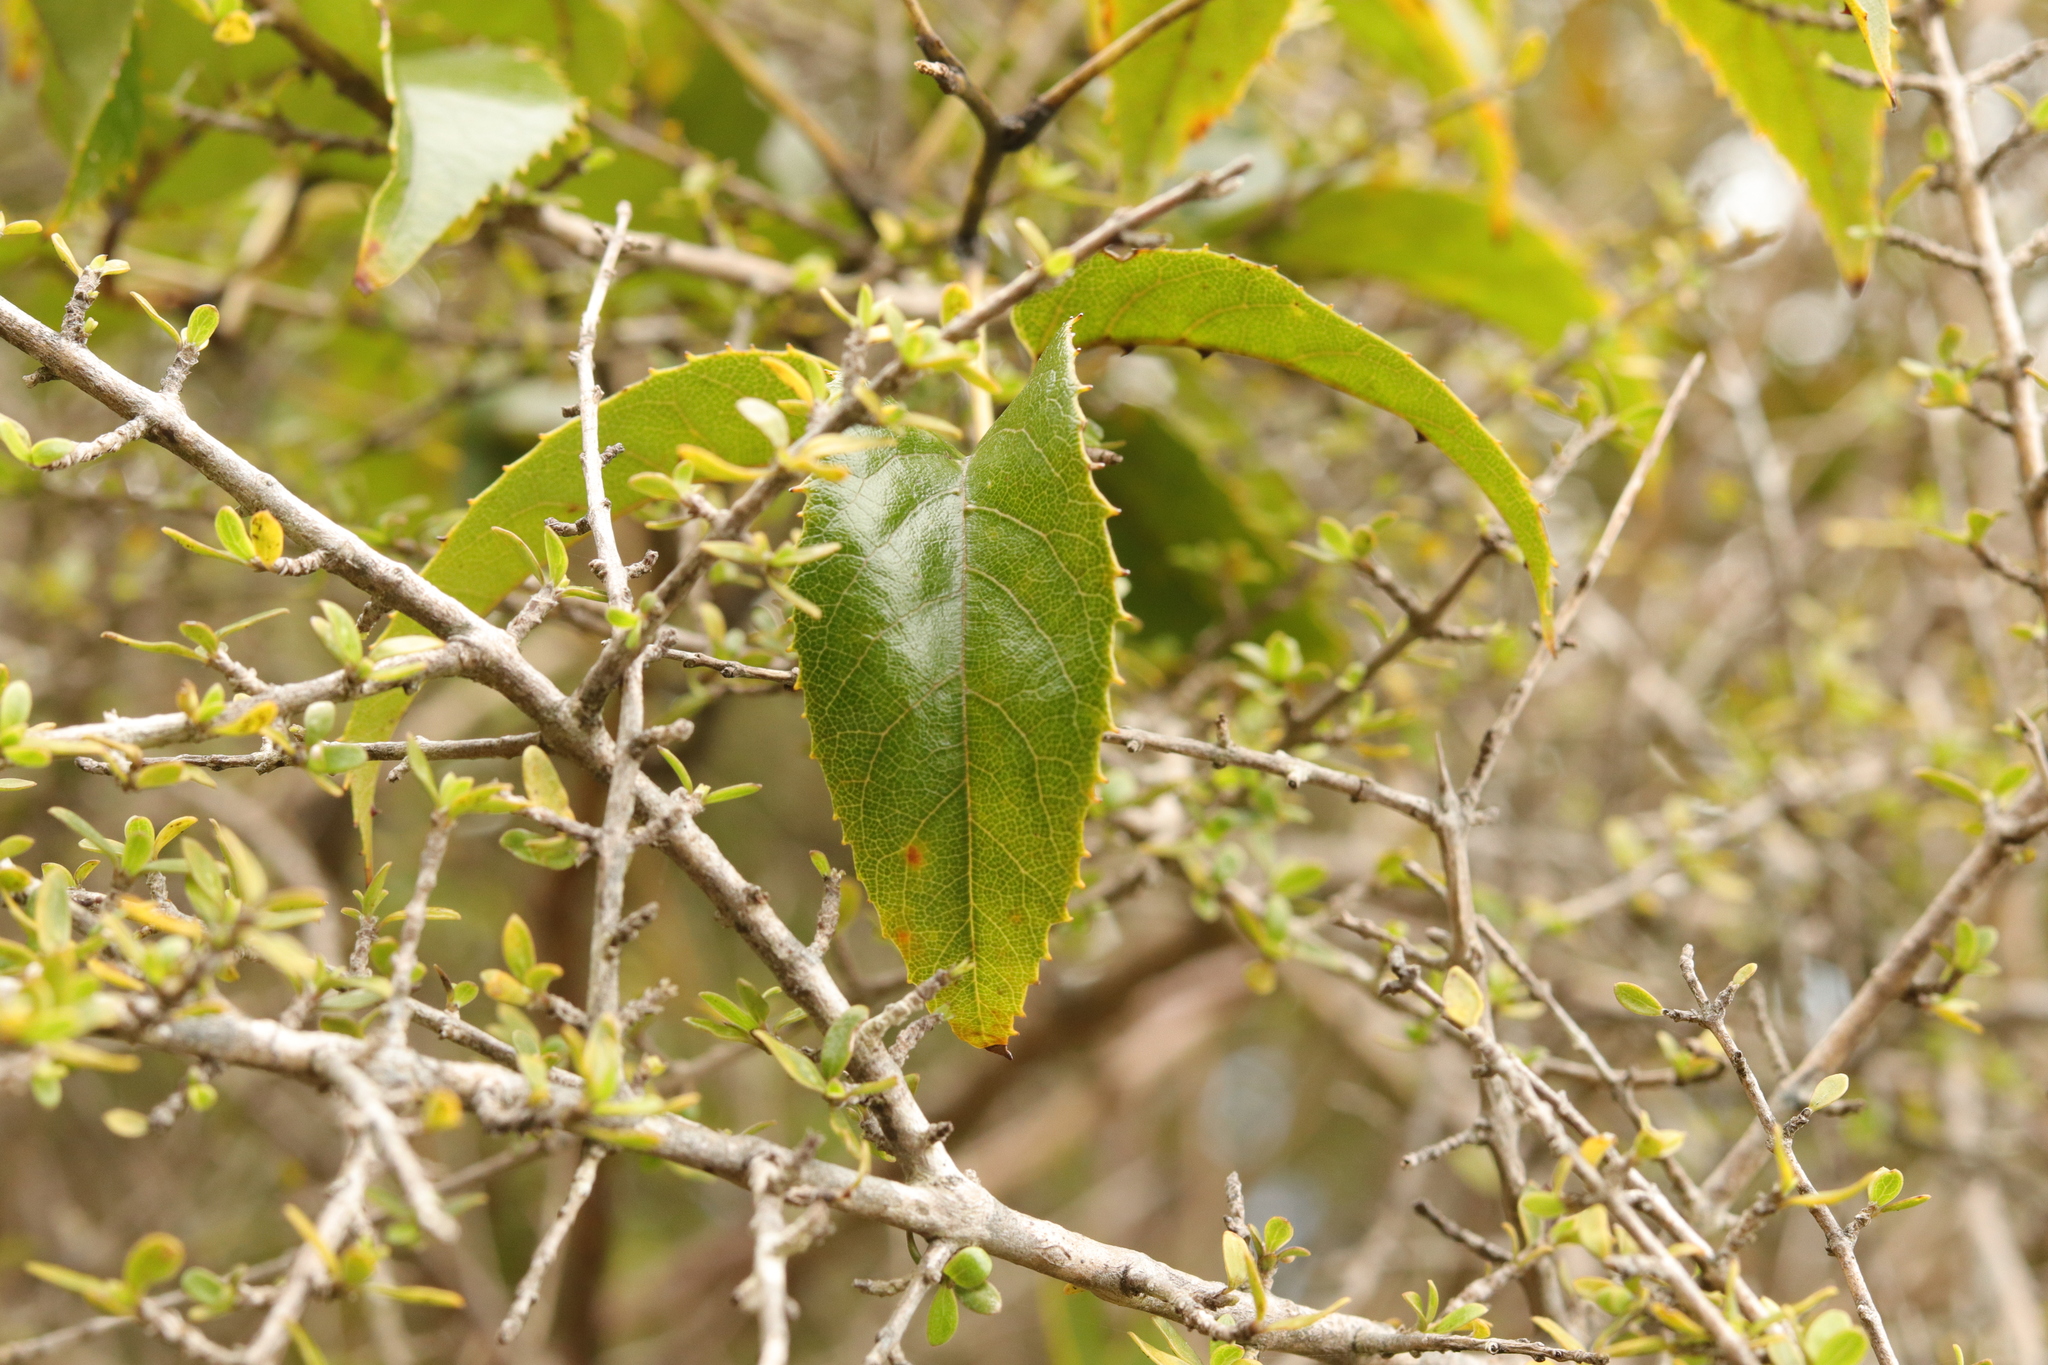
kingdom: Plantae
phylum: Tracheophyta
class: Magnoliopsida
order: Rosales
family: Rosaceae
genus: Rubus
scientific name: Rubus cissoides
